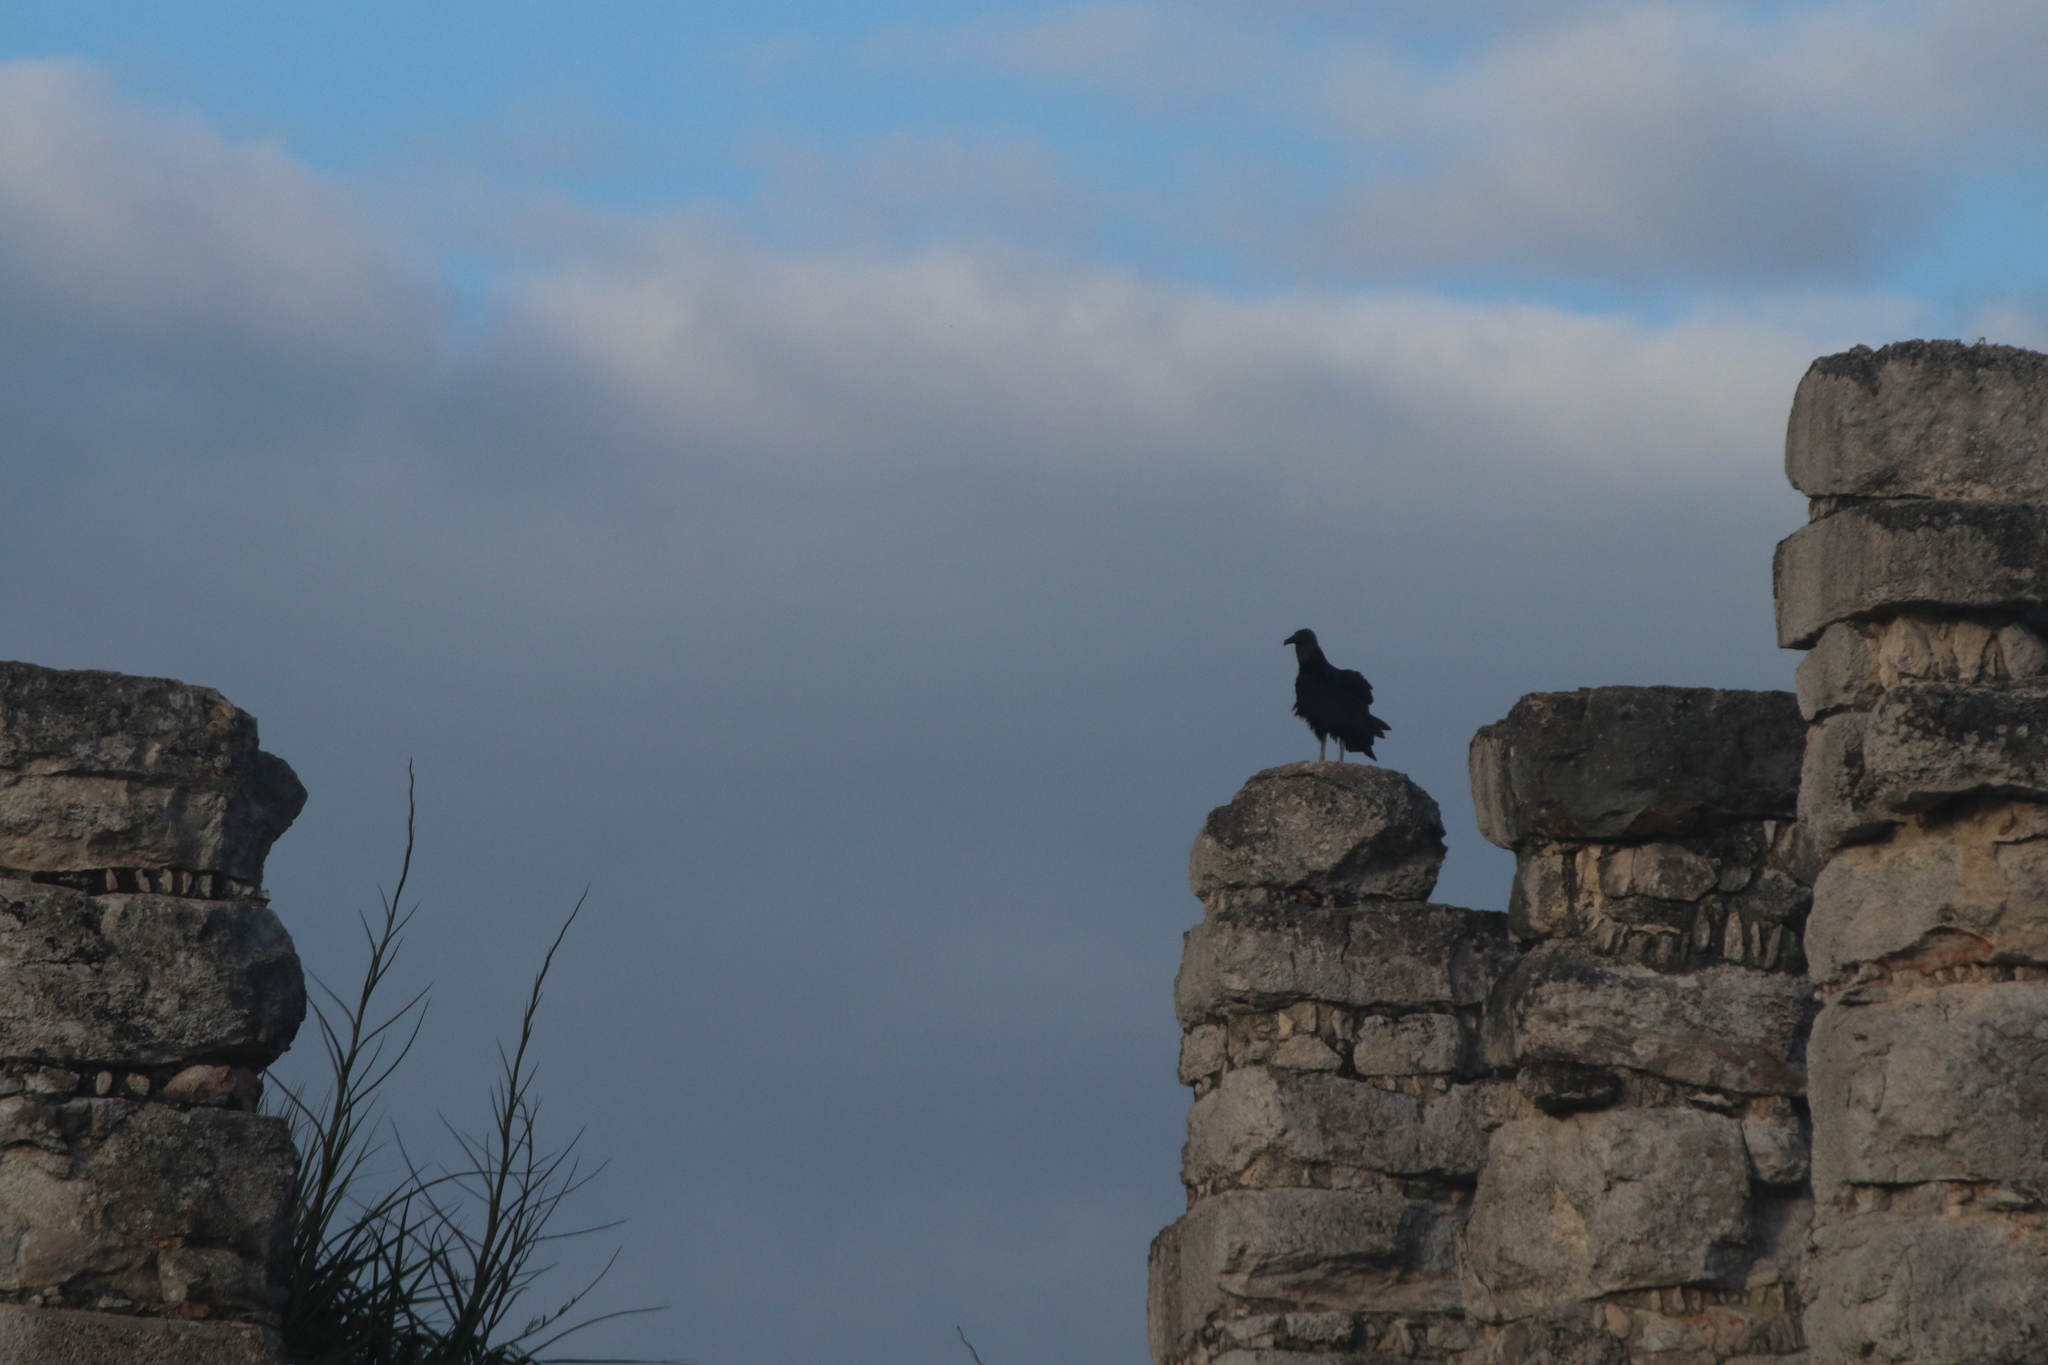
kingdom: Animalia
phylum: Chordata
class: Aves
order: Accipitriformes
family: Cathartidae
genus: Coragyps
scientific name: Coragyps atratus
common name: Black vulture
